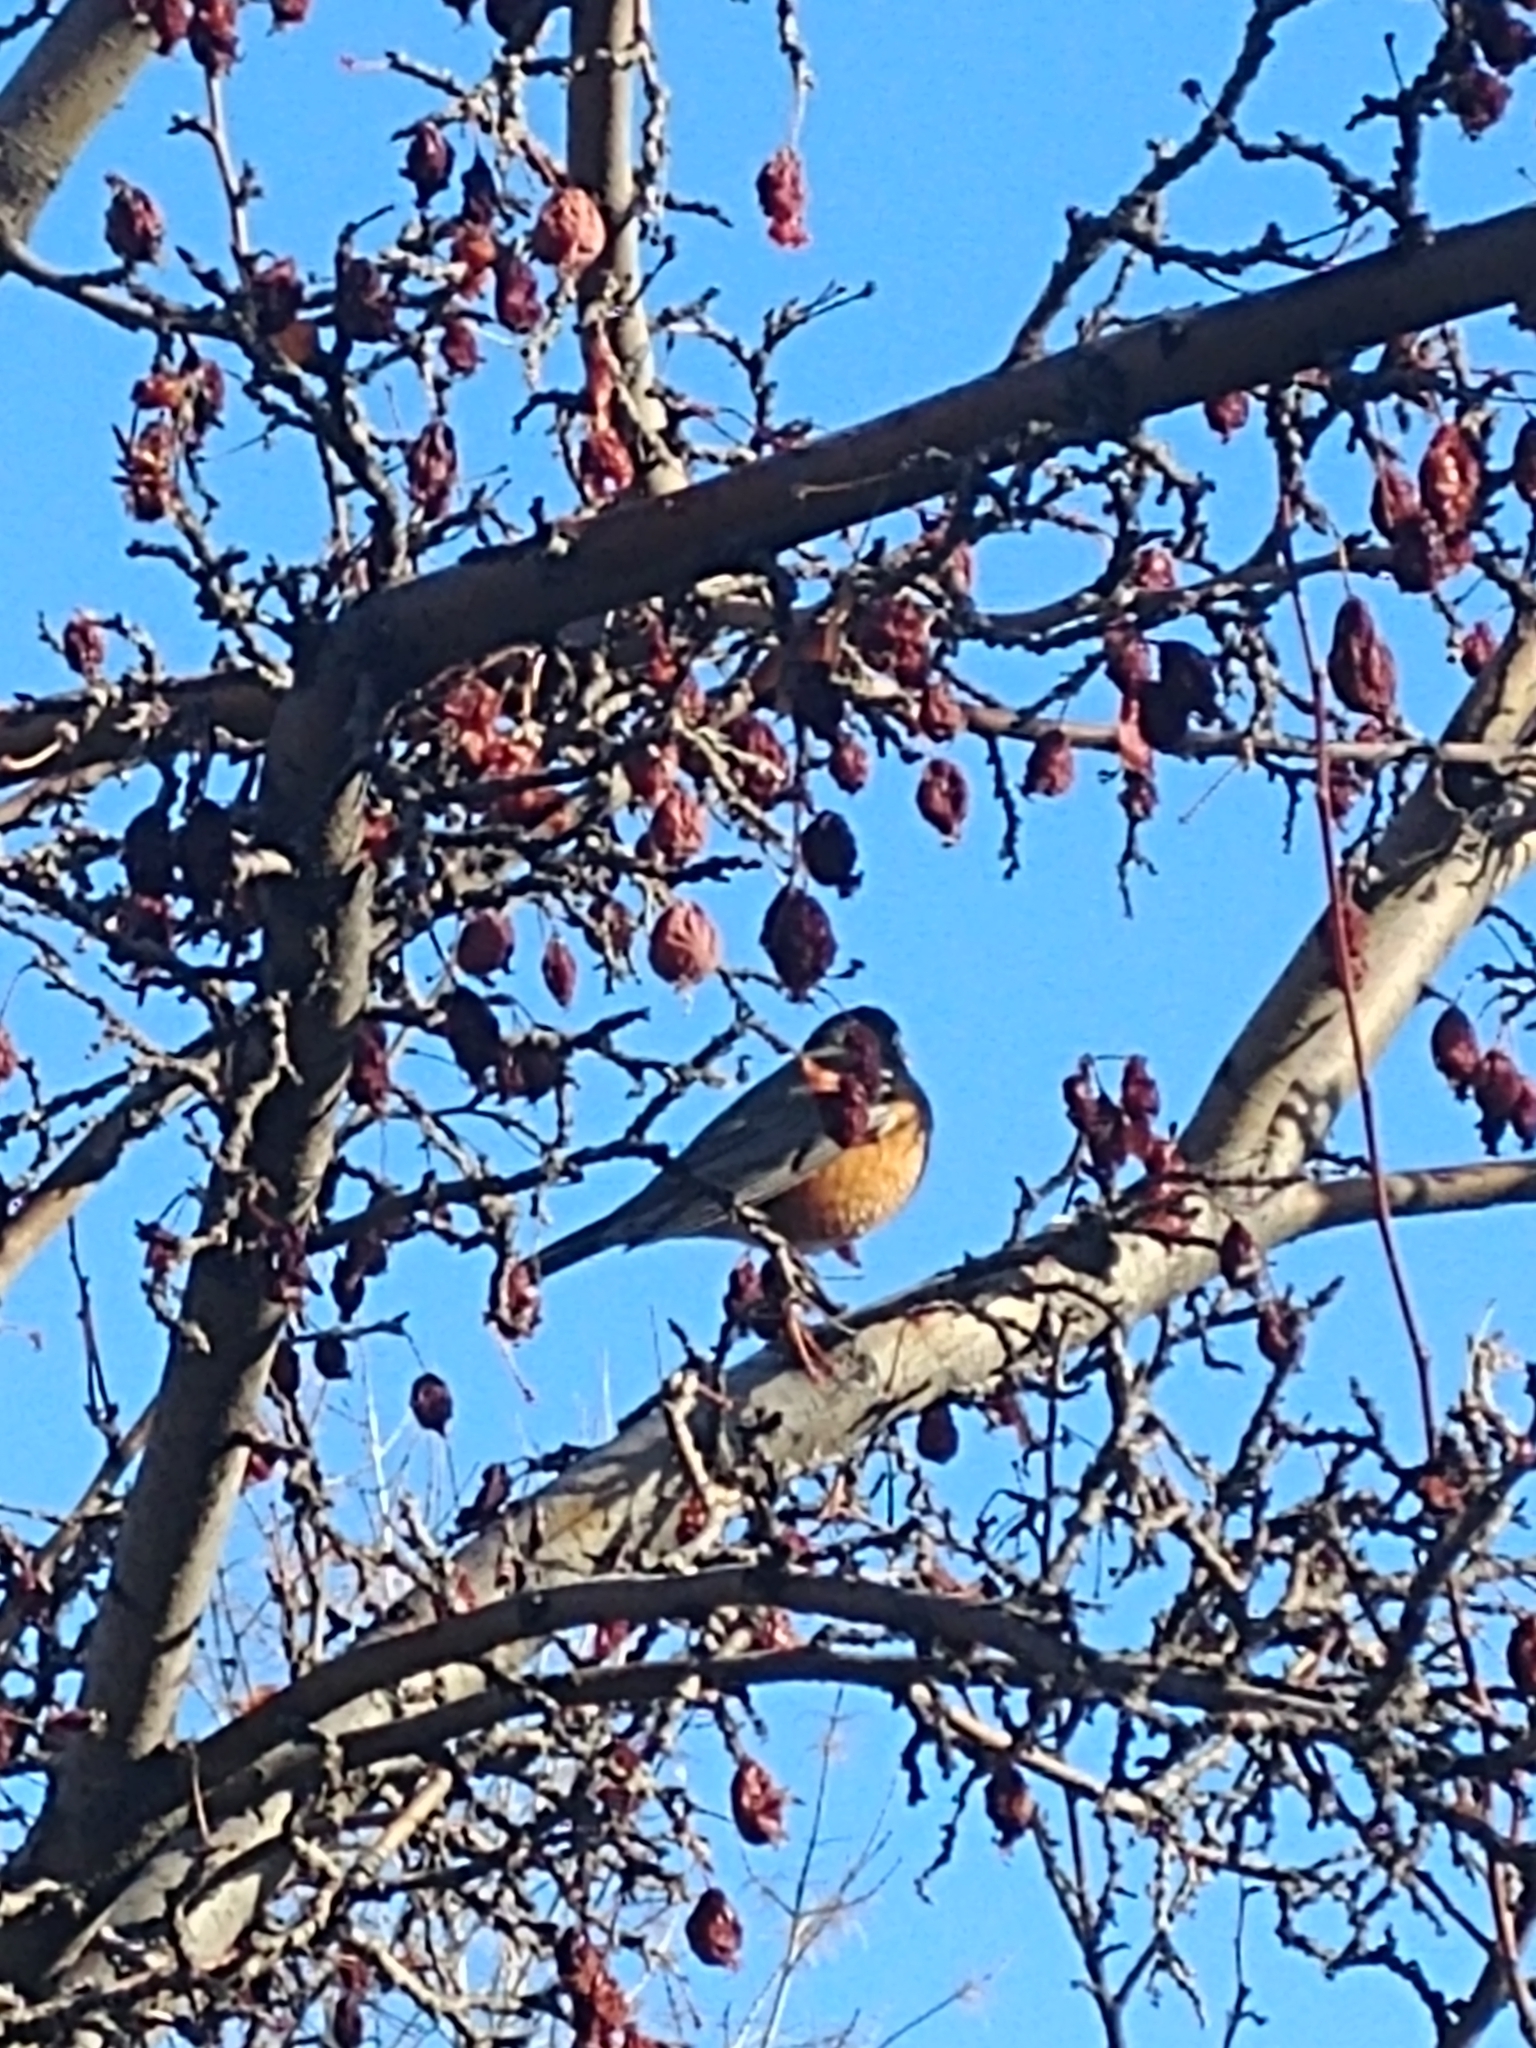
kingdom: Animalia
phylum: Chordata
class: Aves
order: Passeriformes
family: Turdidae
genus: Turdus
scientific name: Turdus migratorius
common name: American robin
